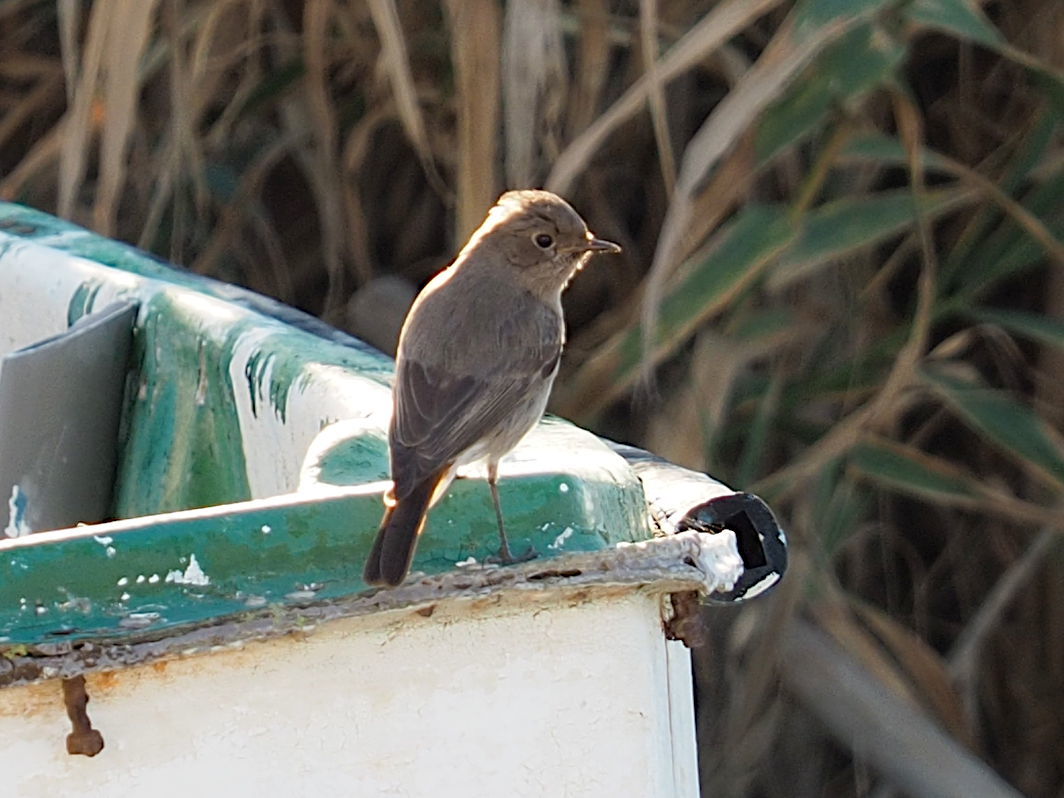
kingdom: Animalia
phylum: Chordata
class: Aves
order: Passeriformes
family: Muscicapidae
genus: Phoenicurus
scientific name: Phoenicurus ochruros
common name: Black redstart
